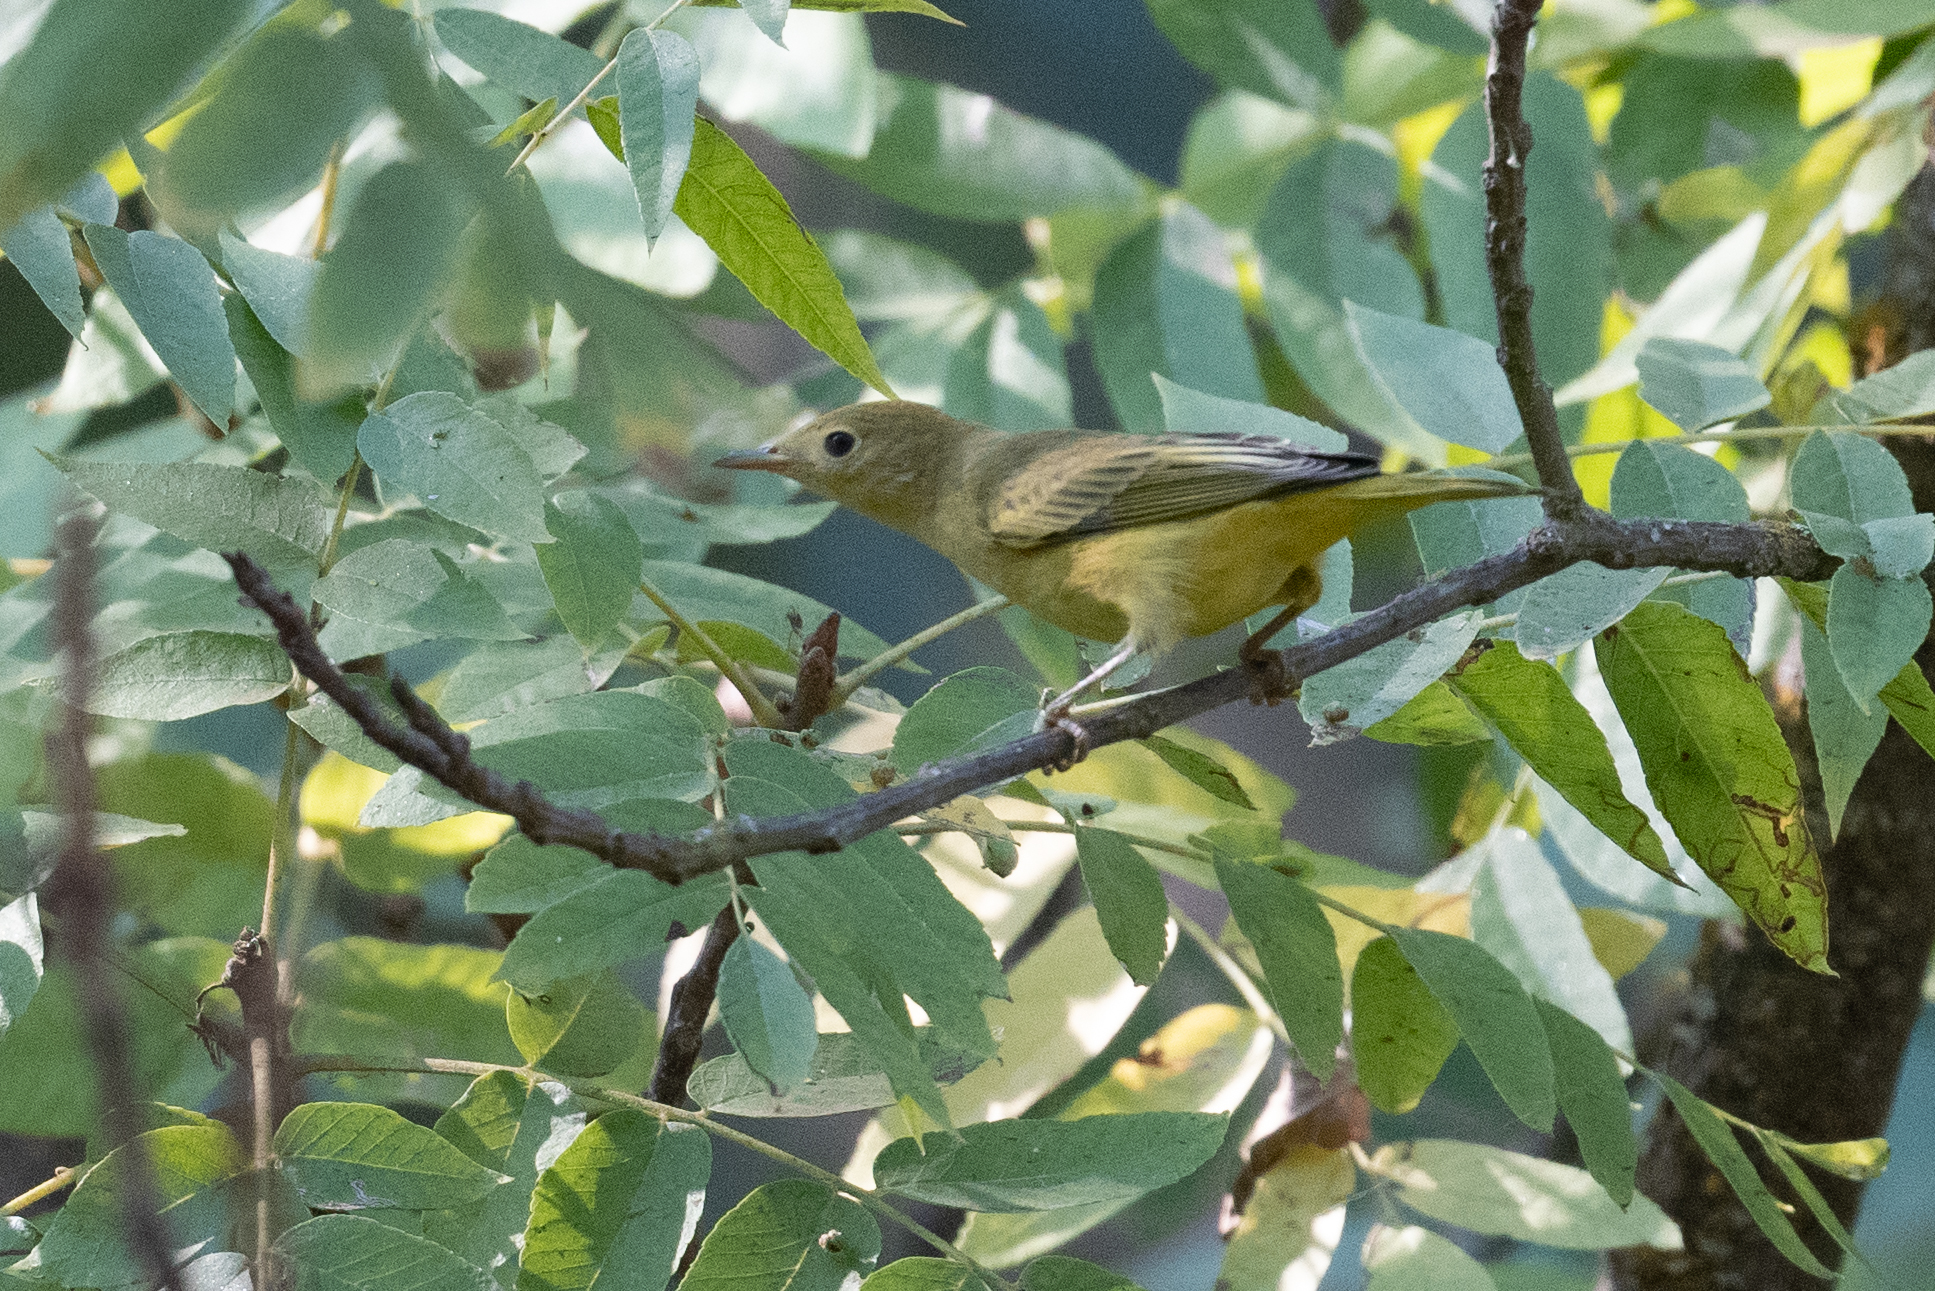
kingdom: Animalia
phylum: Chordata
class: Aves
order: Passeriformes
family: Parulidae
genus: Setophaga
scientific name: Setophaga petechia
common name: Yellow warbler
